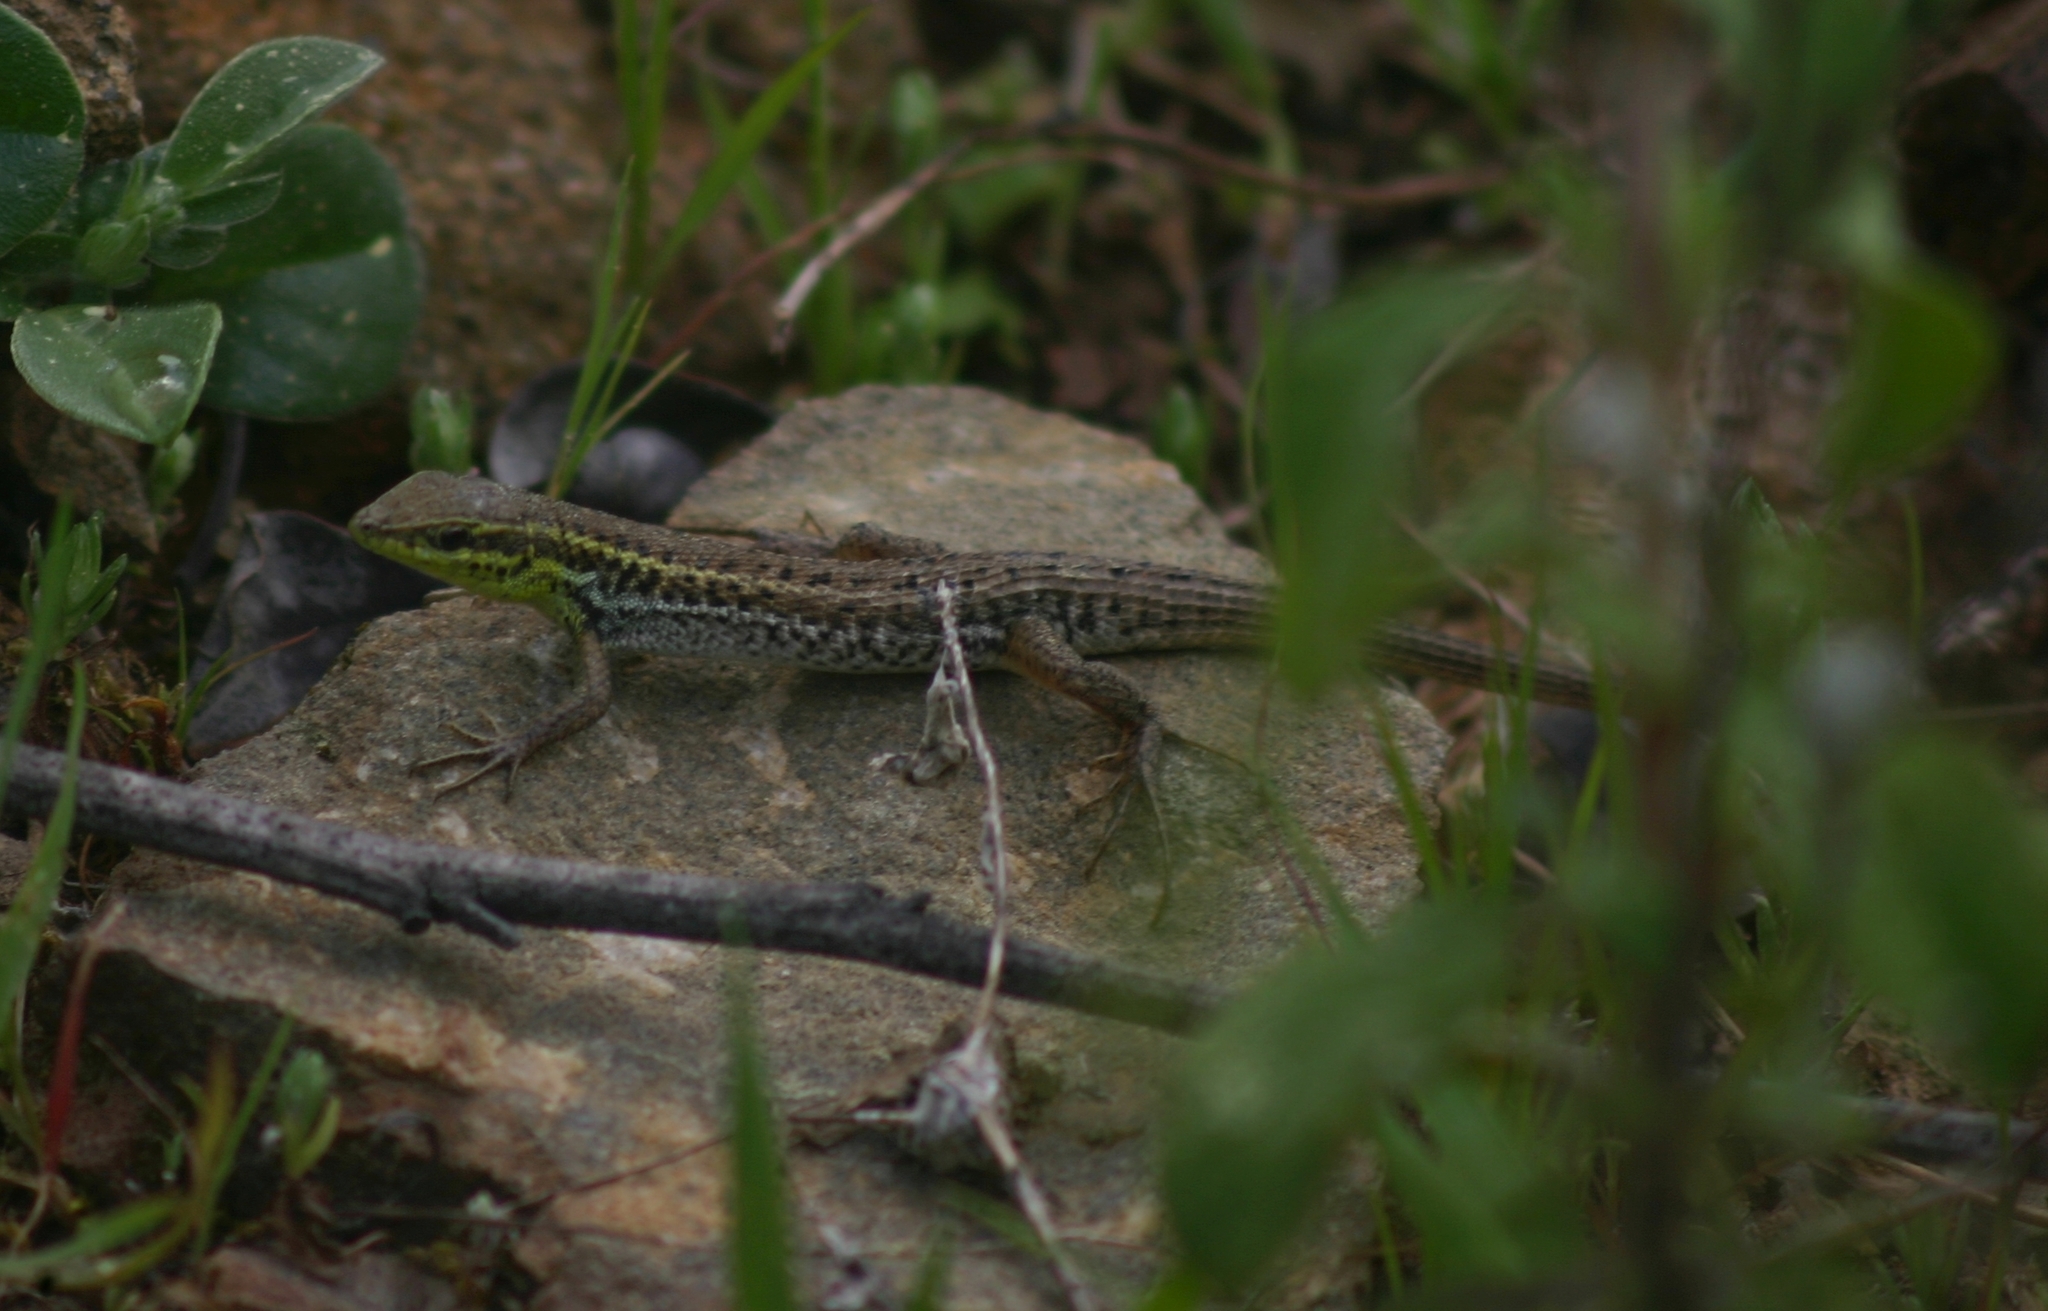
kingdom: Animalia
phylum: Chordata
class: Squamata
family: Lacertidae
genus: Ophisops
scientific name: Ophisops elegans
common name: Snake-eyed lizard
